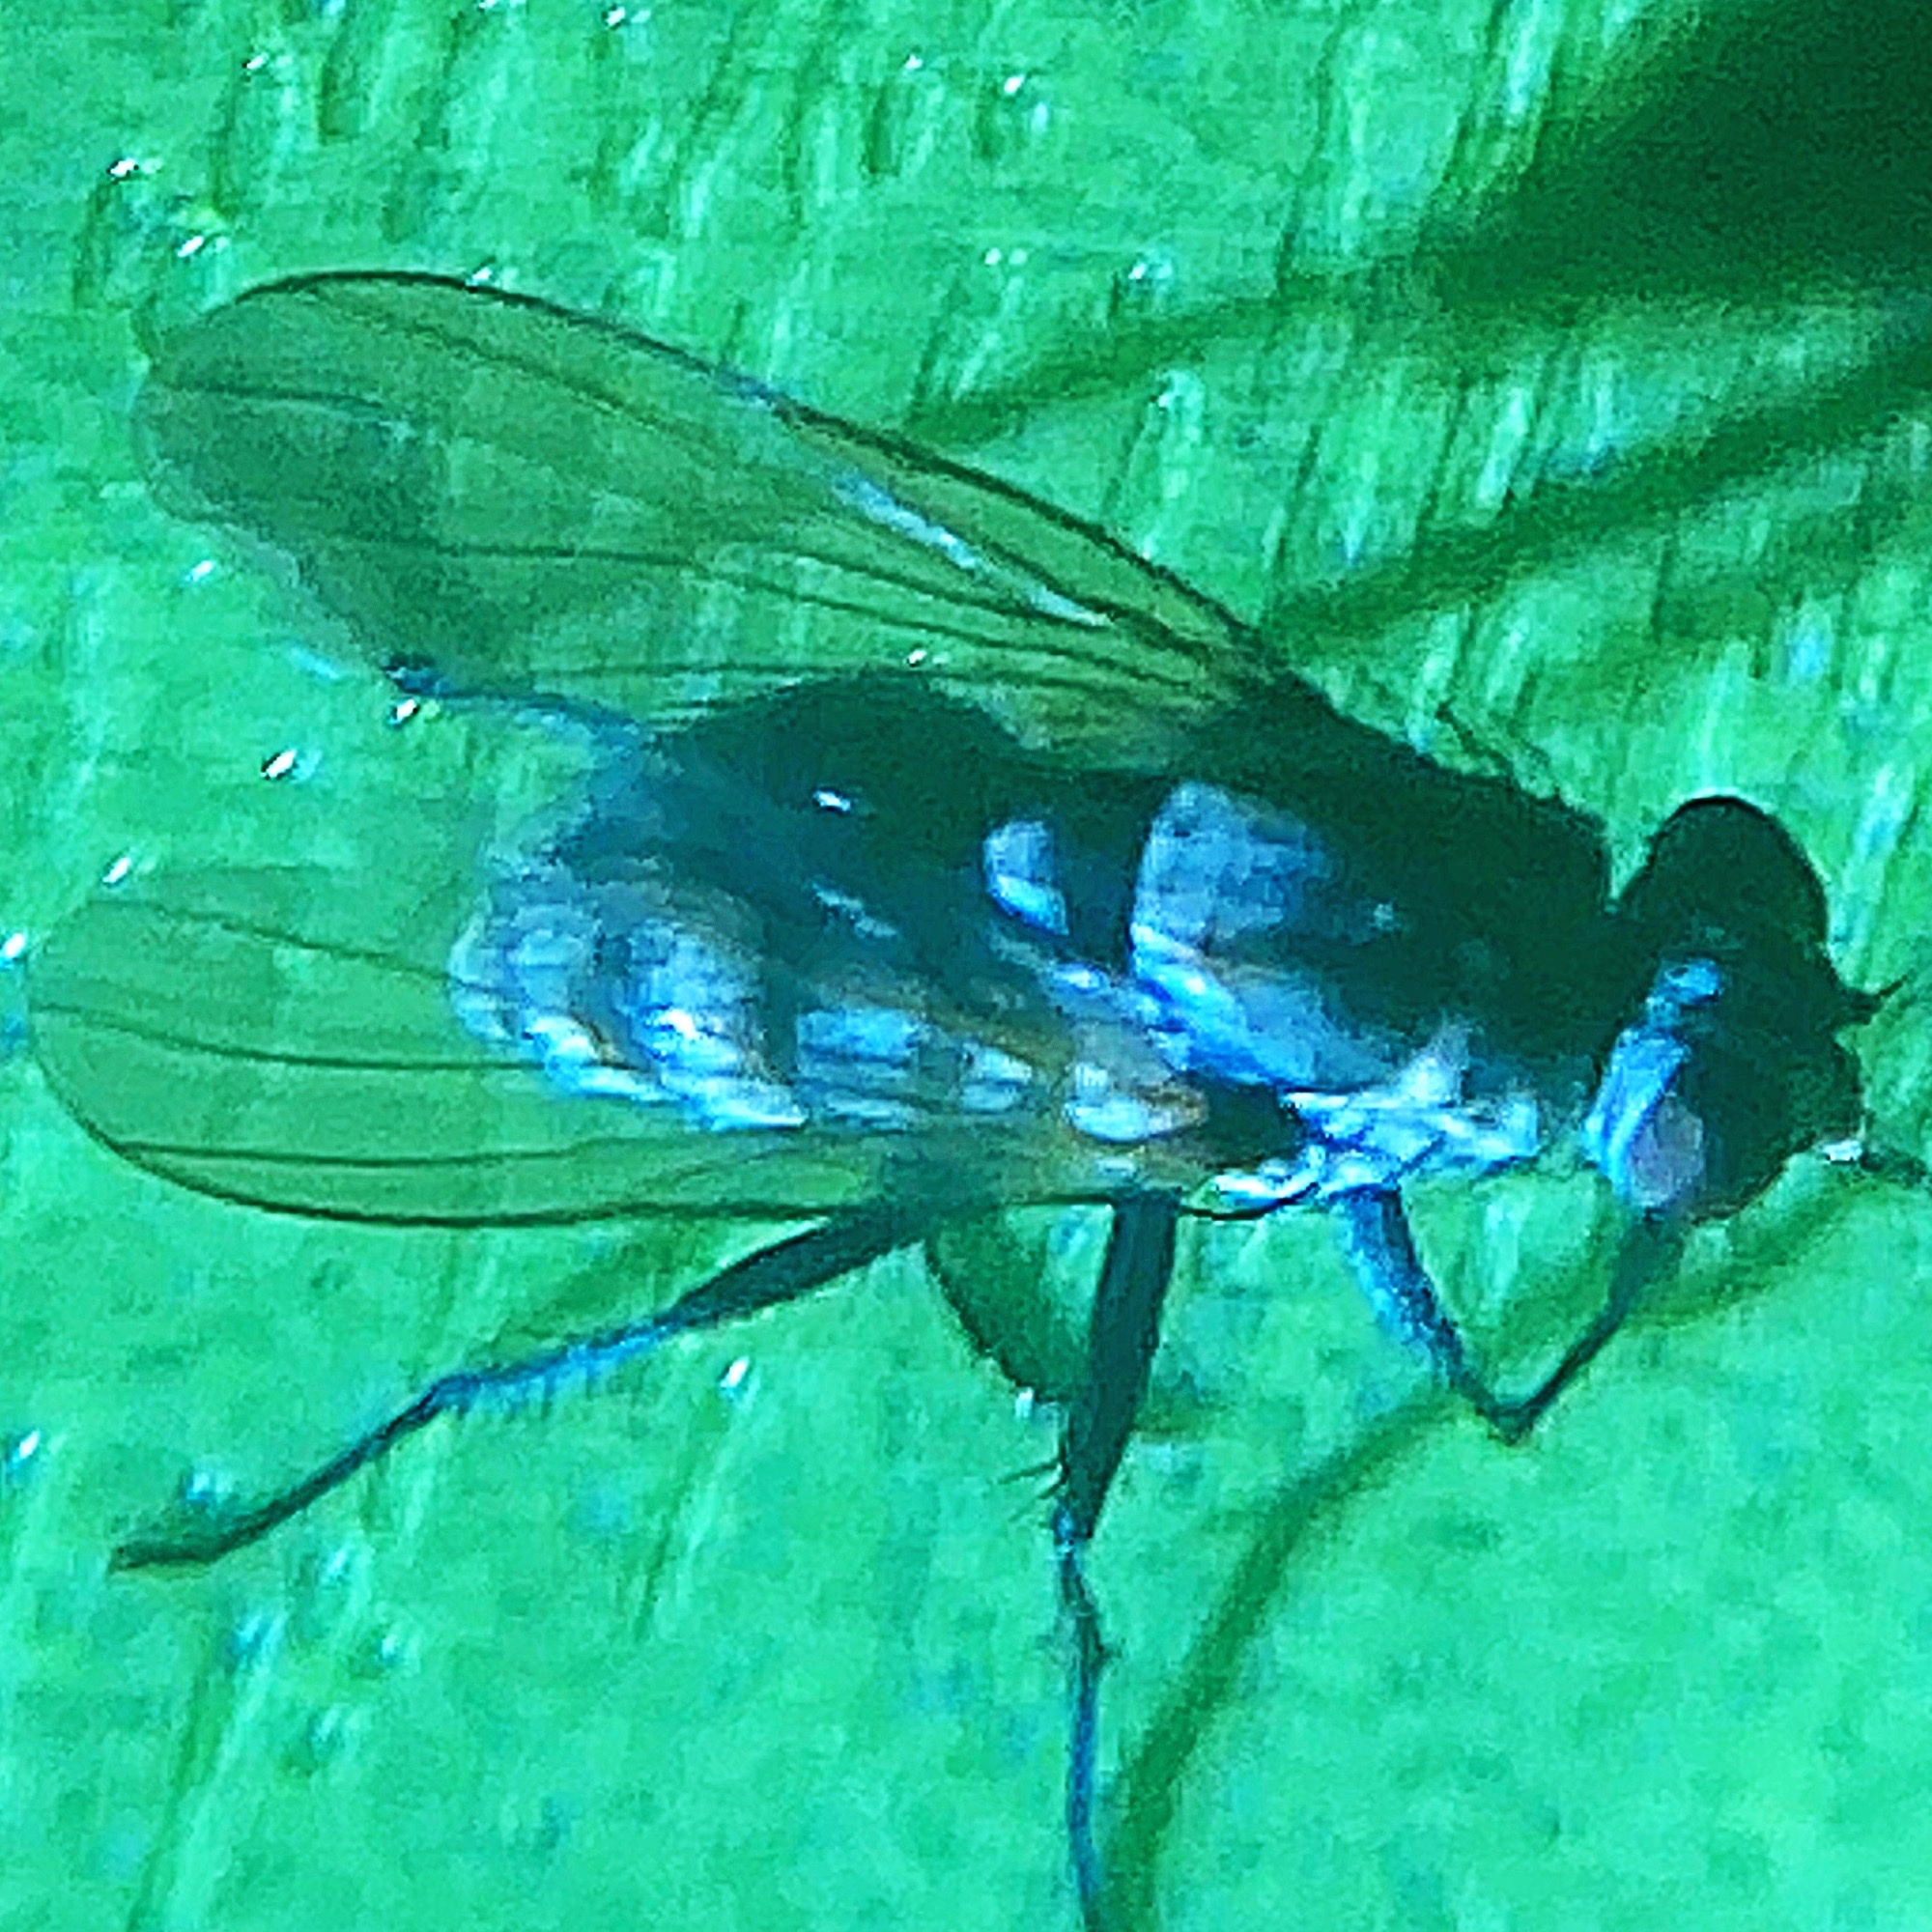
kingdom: Animalia
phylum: Arthropoda
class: Insecta
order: Diptera
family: Anthomyiidae
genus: Anthomyia
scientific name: Anthomyia oculifera
